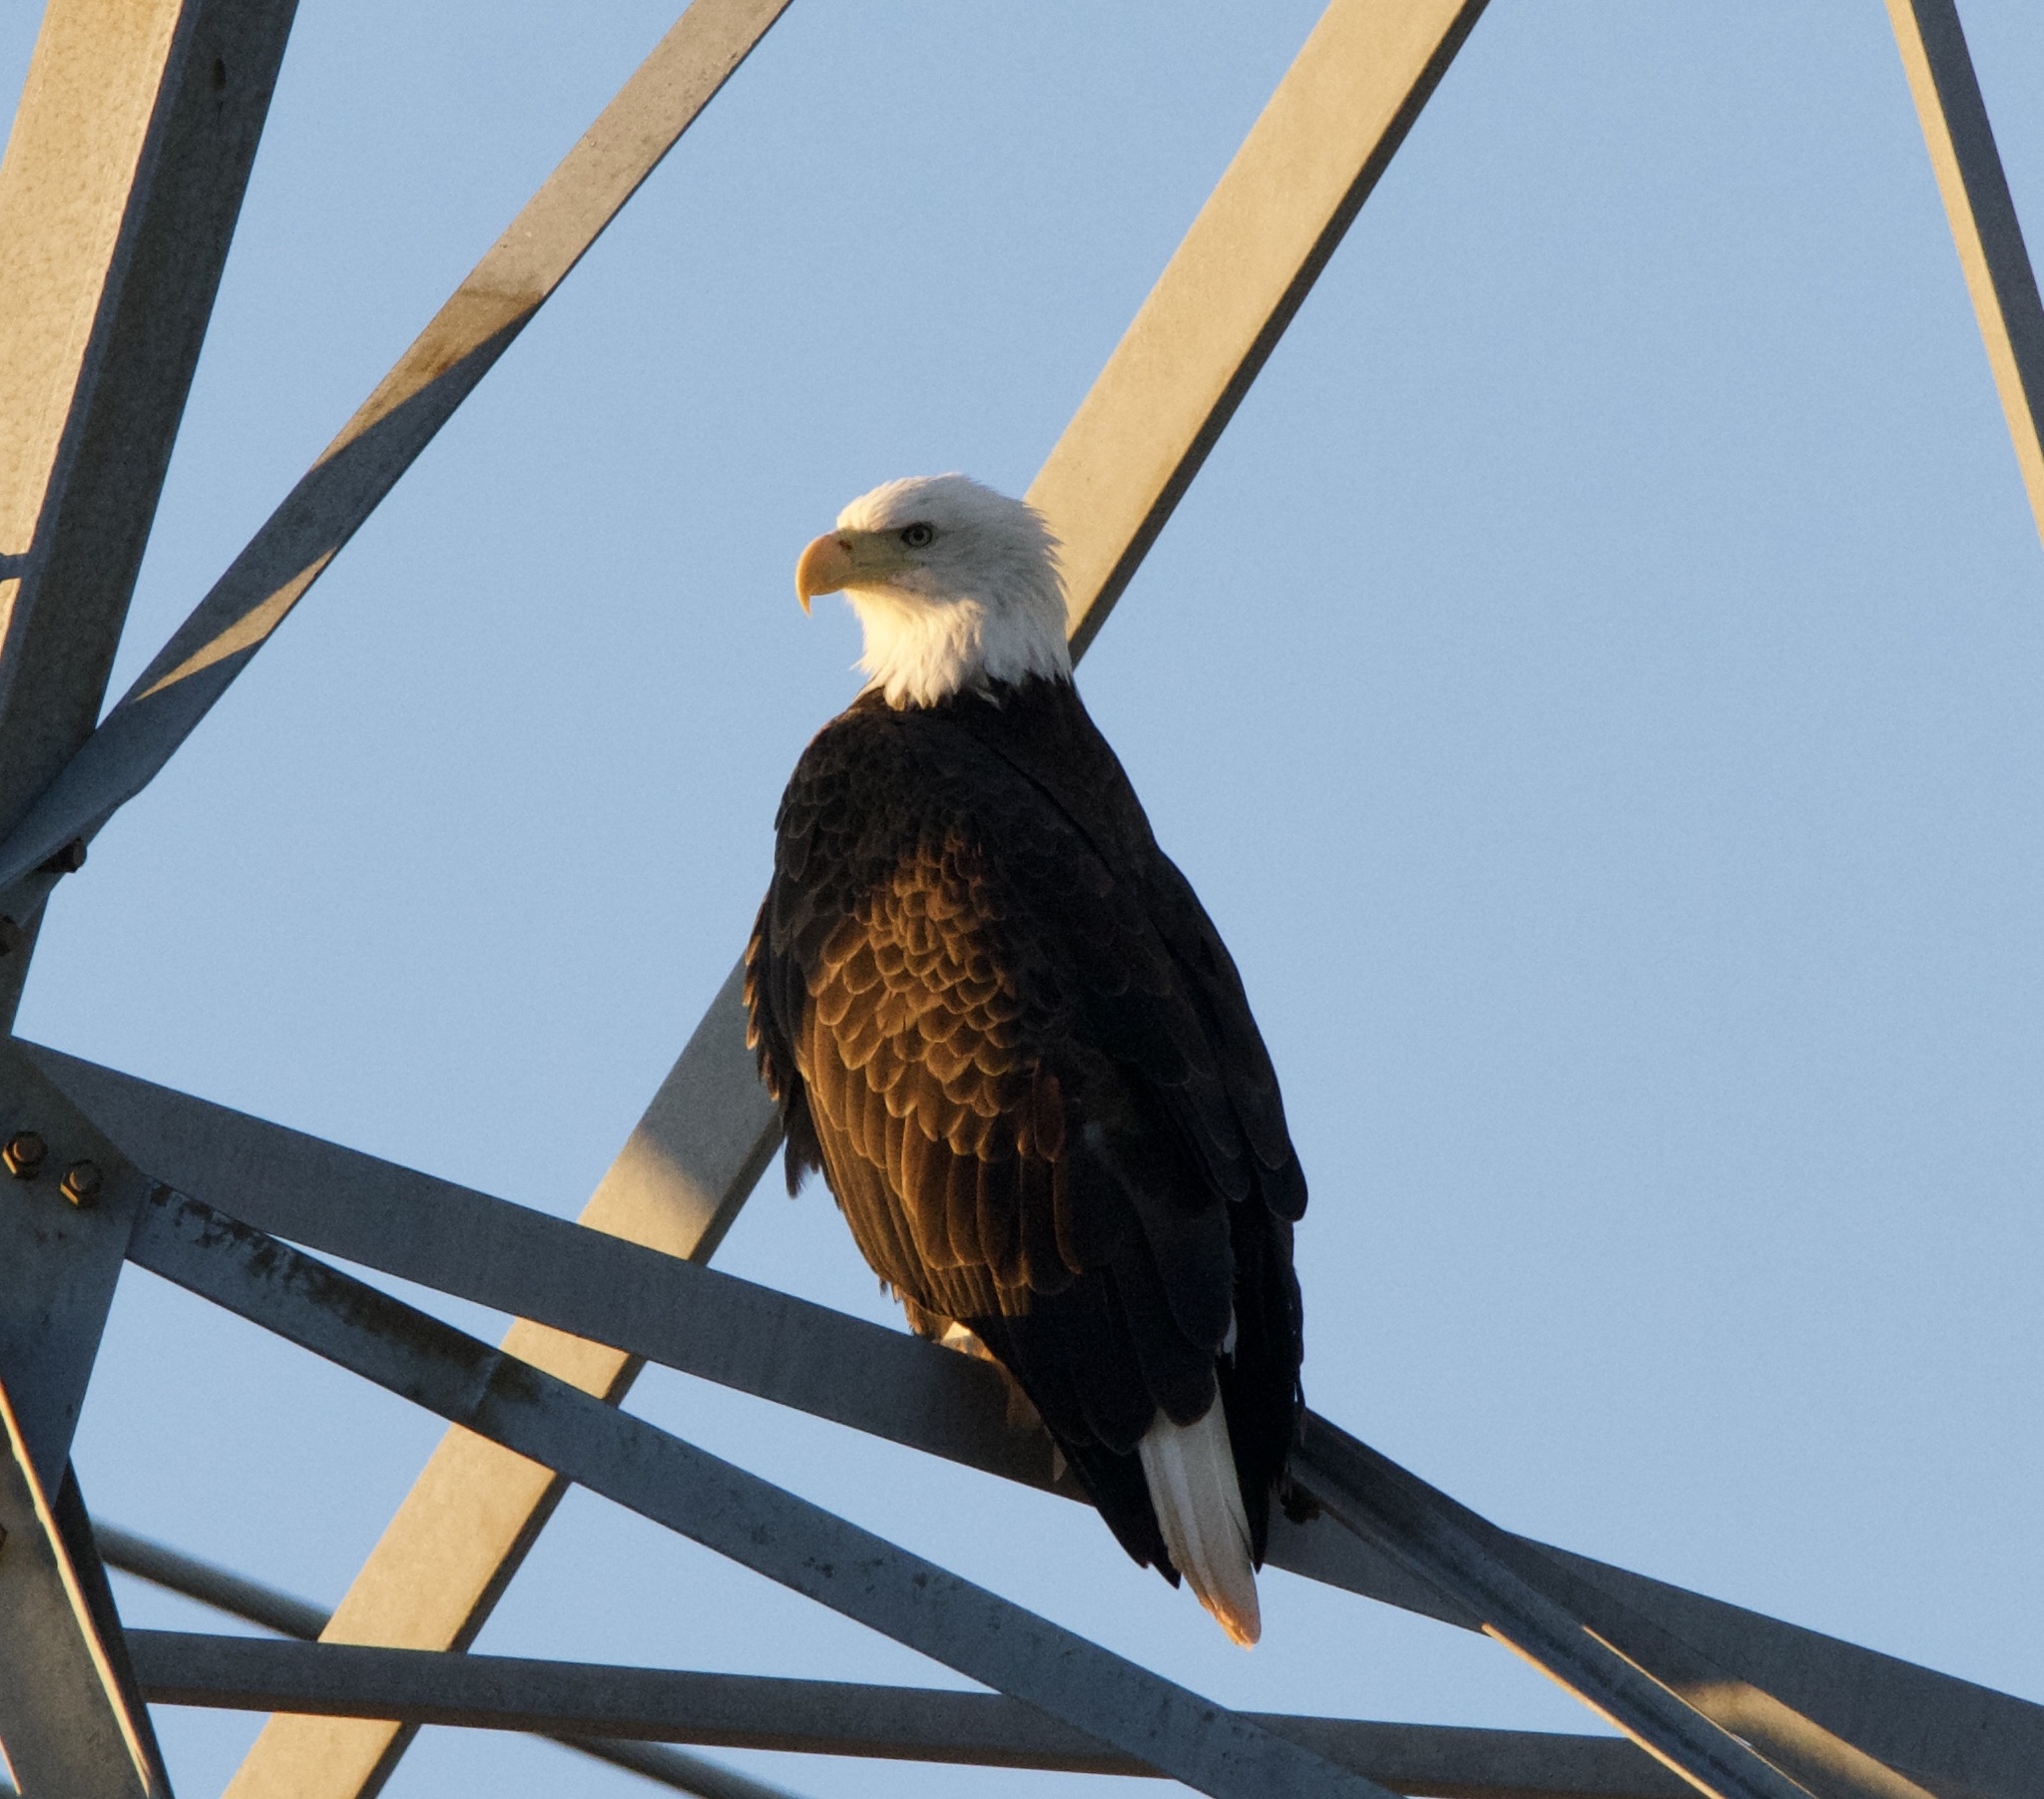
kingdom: Animalia
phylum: Chordata
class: Aves
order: Accipitriformes
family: Accipitridae
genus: Haliaeetus
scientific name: Haliaeetus leucocephalus
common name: Bald eagle
